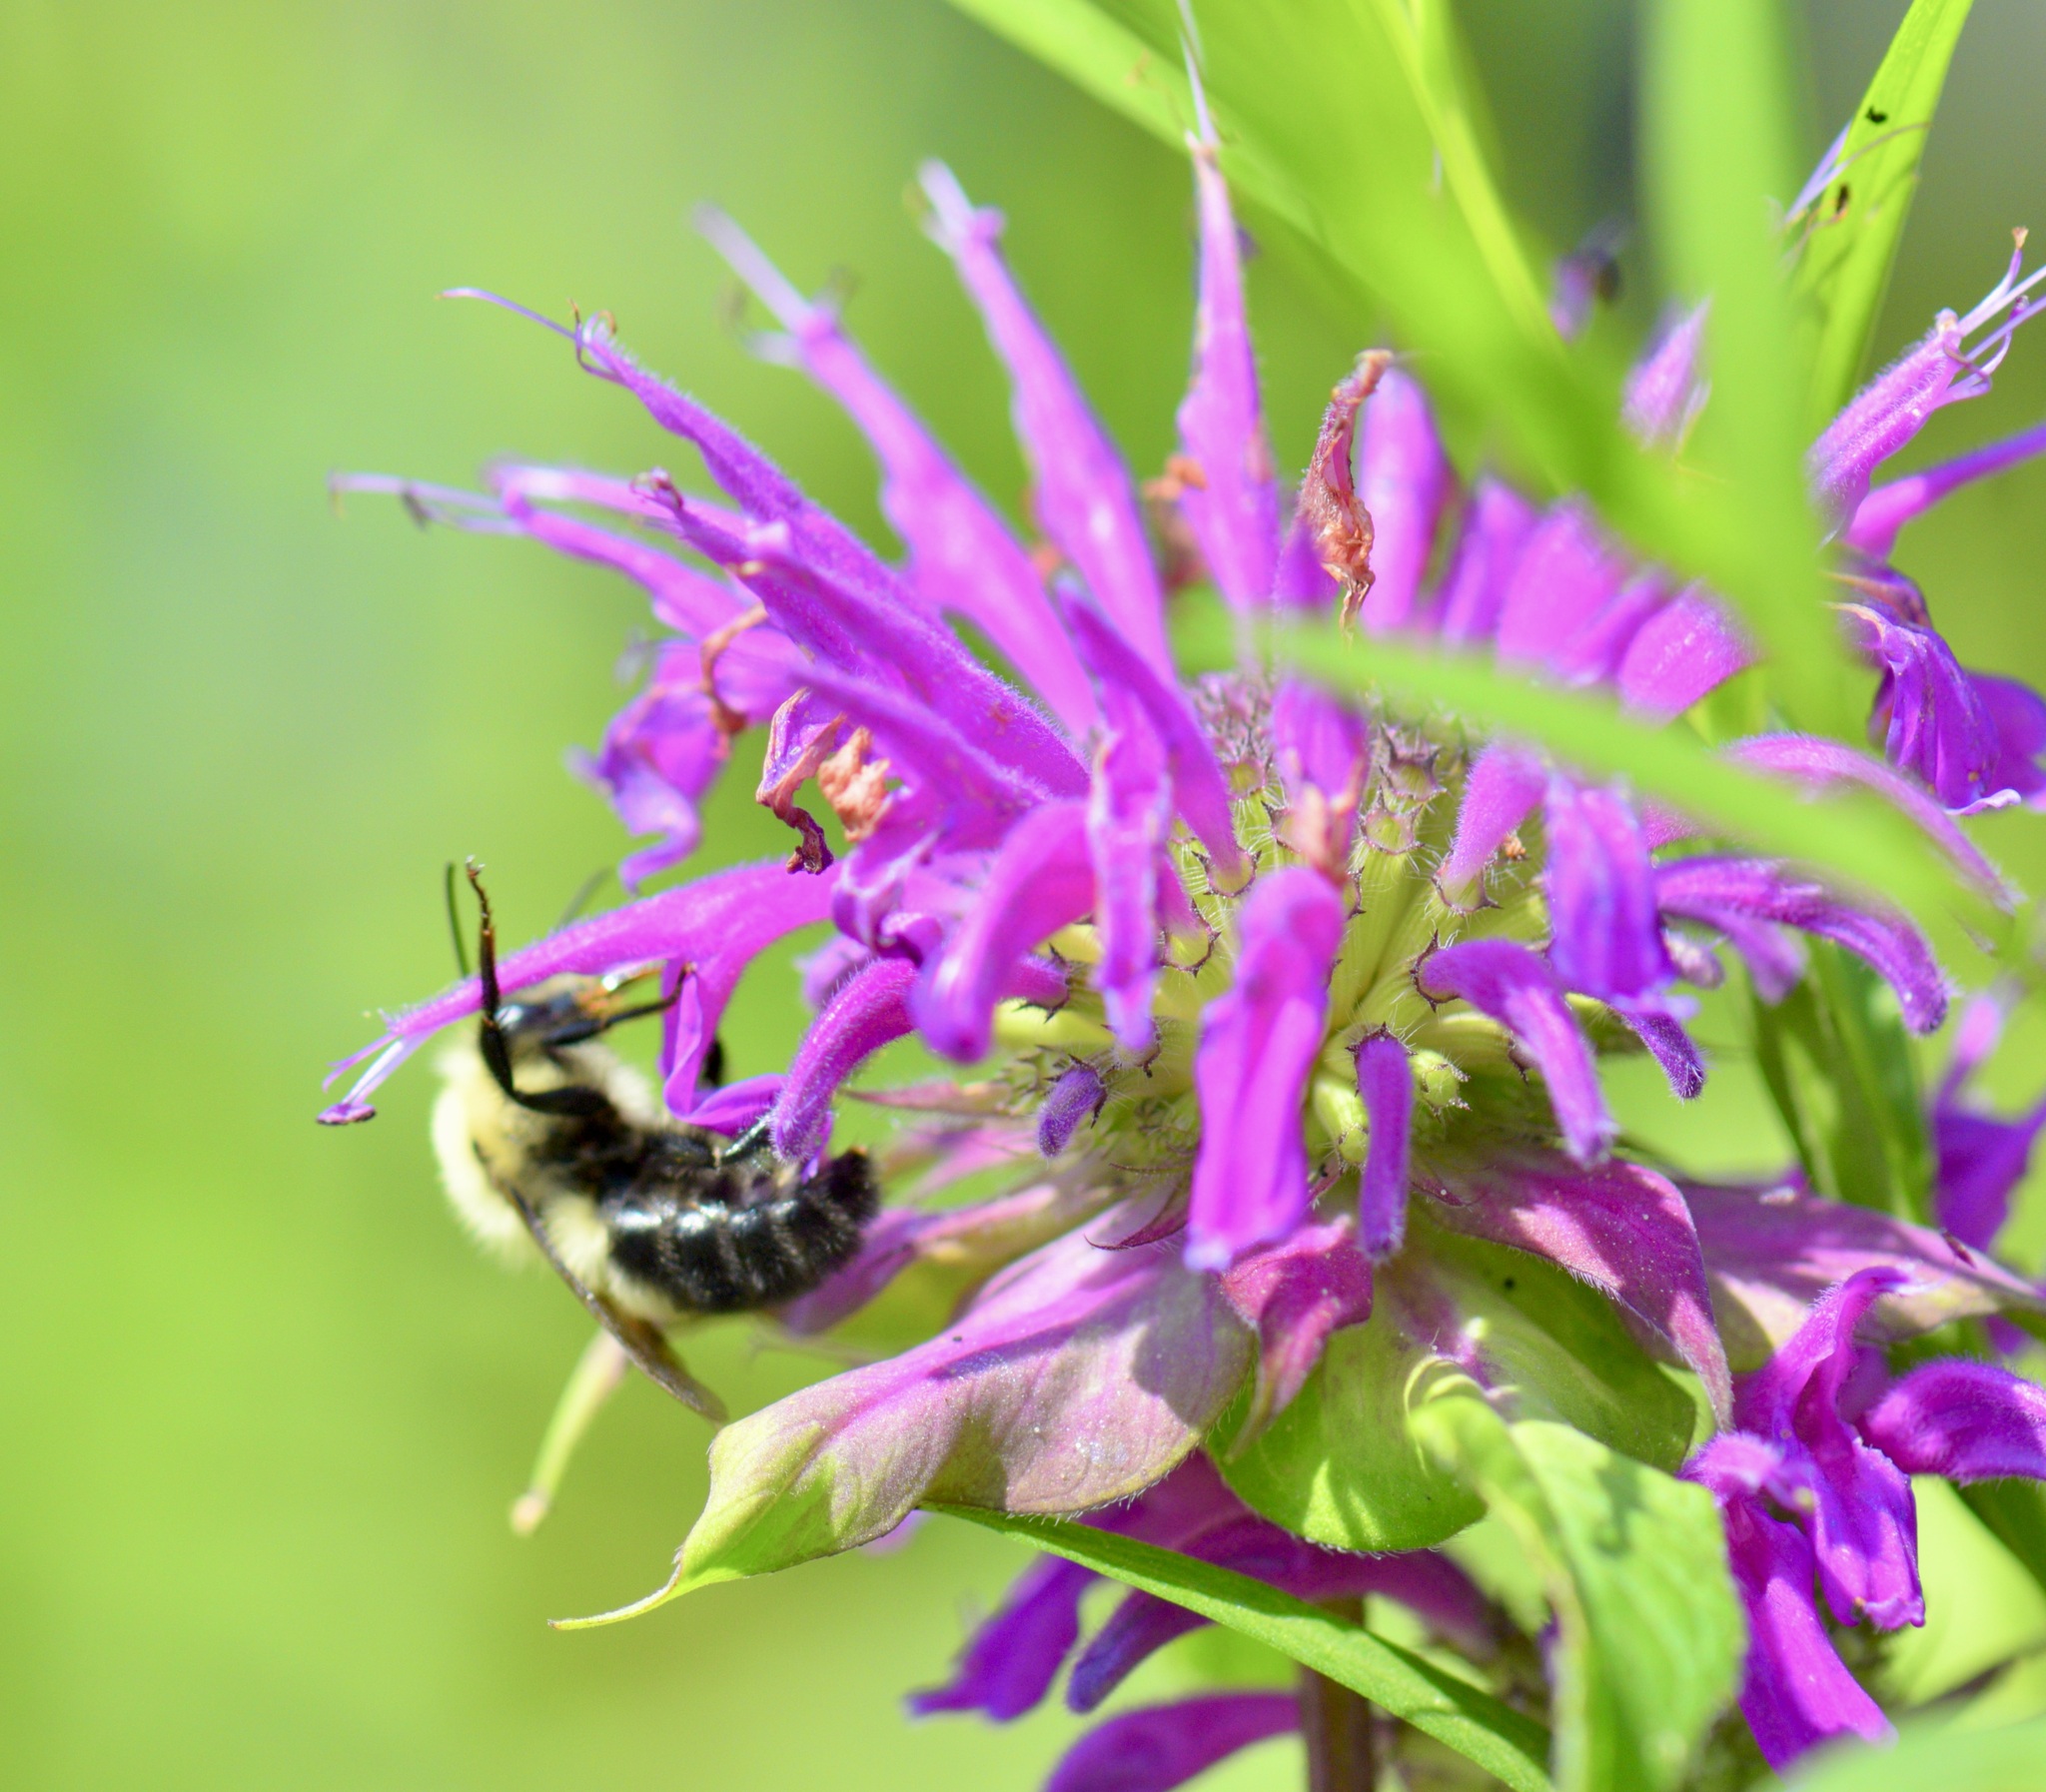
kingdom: Animalia
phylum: Arthropoda
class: Insecta
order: Hymenoptera
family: Apidae
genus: Bombus
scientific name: Bombus bimaculatus
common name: Two-spotted bumble bee
